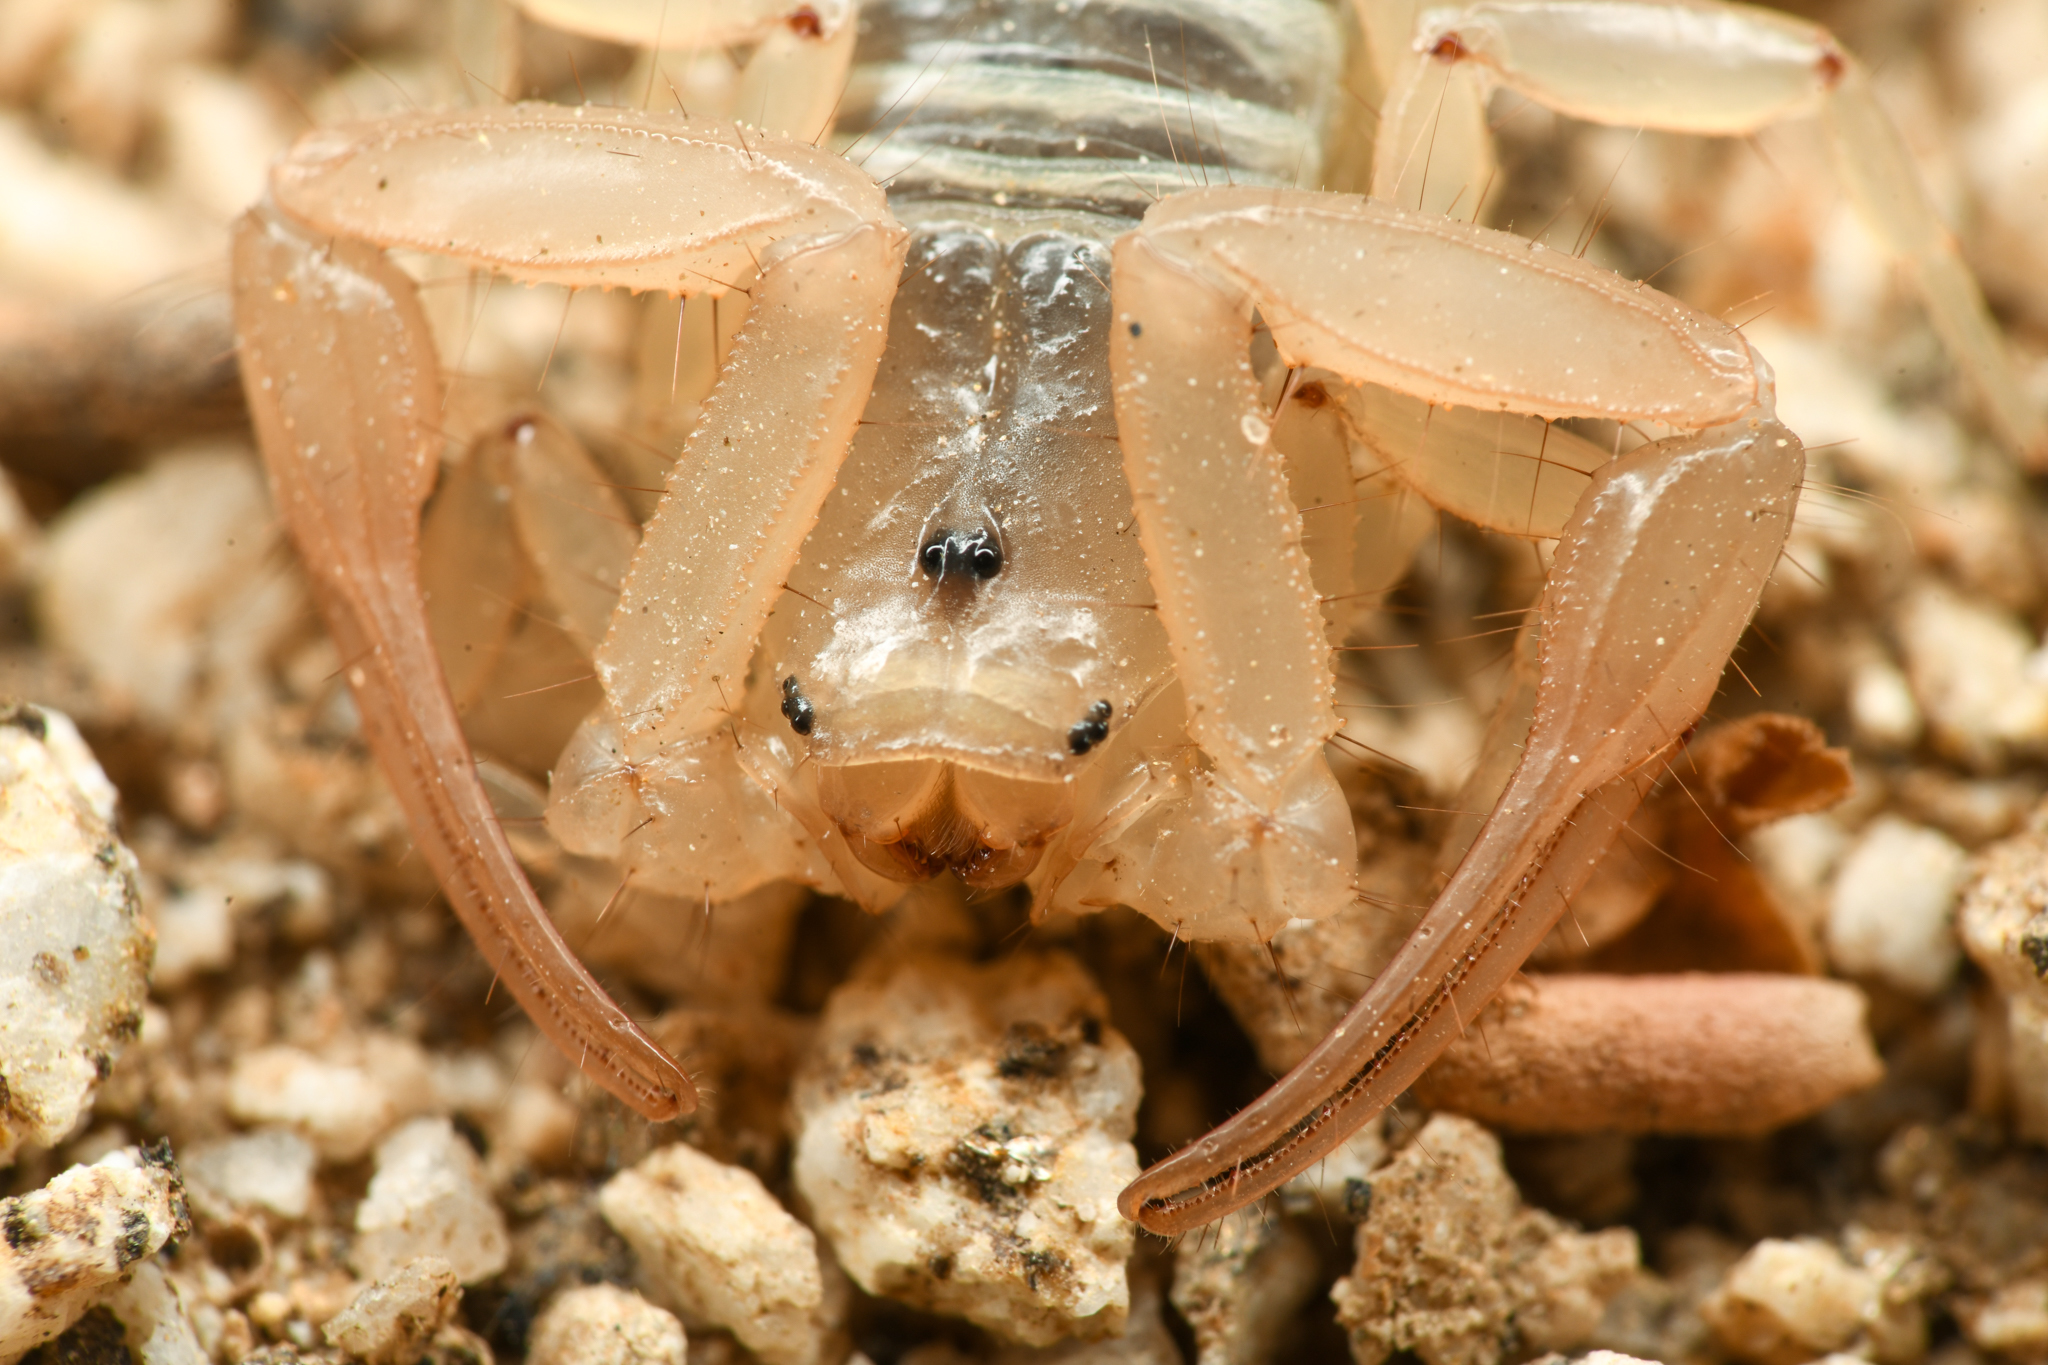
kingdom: Animalia
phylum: Arthropoda
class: Arachnida
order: Scorpiones
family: Vaejovidae
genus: Stahnkeus
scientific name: Stahnkeus subtilimanus
